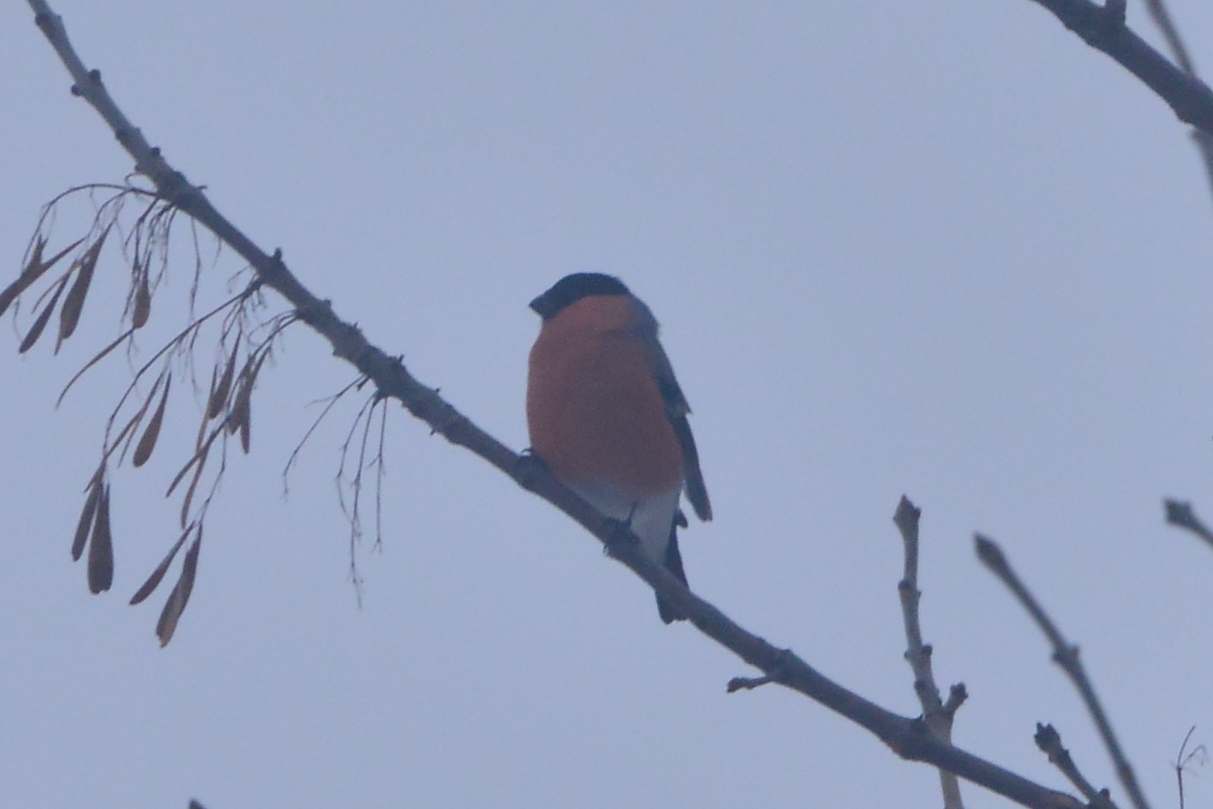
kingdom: Animalia
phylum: Chordata
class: Aves
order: Passeriformes
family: Fringillidae
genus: Pyrrhula
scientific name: Pyrrhula pyrrhula
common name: Eurasian bullfinch
